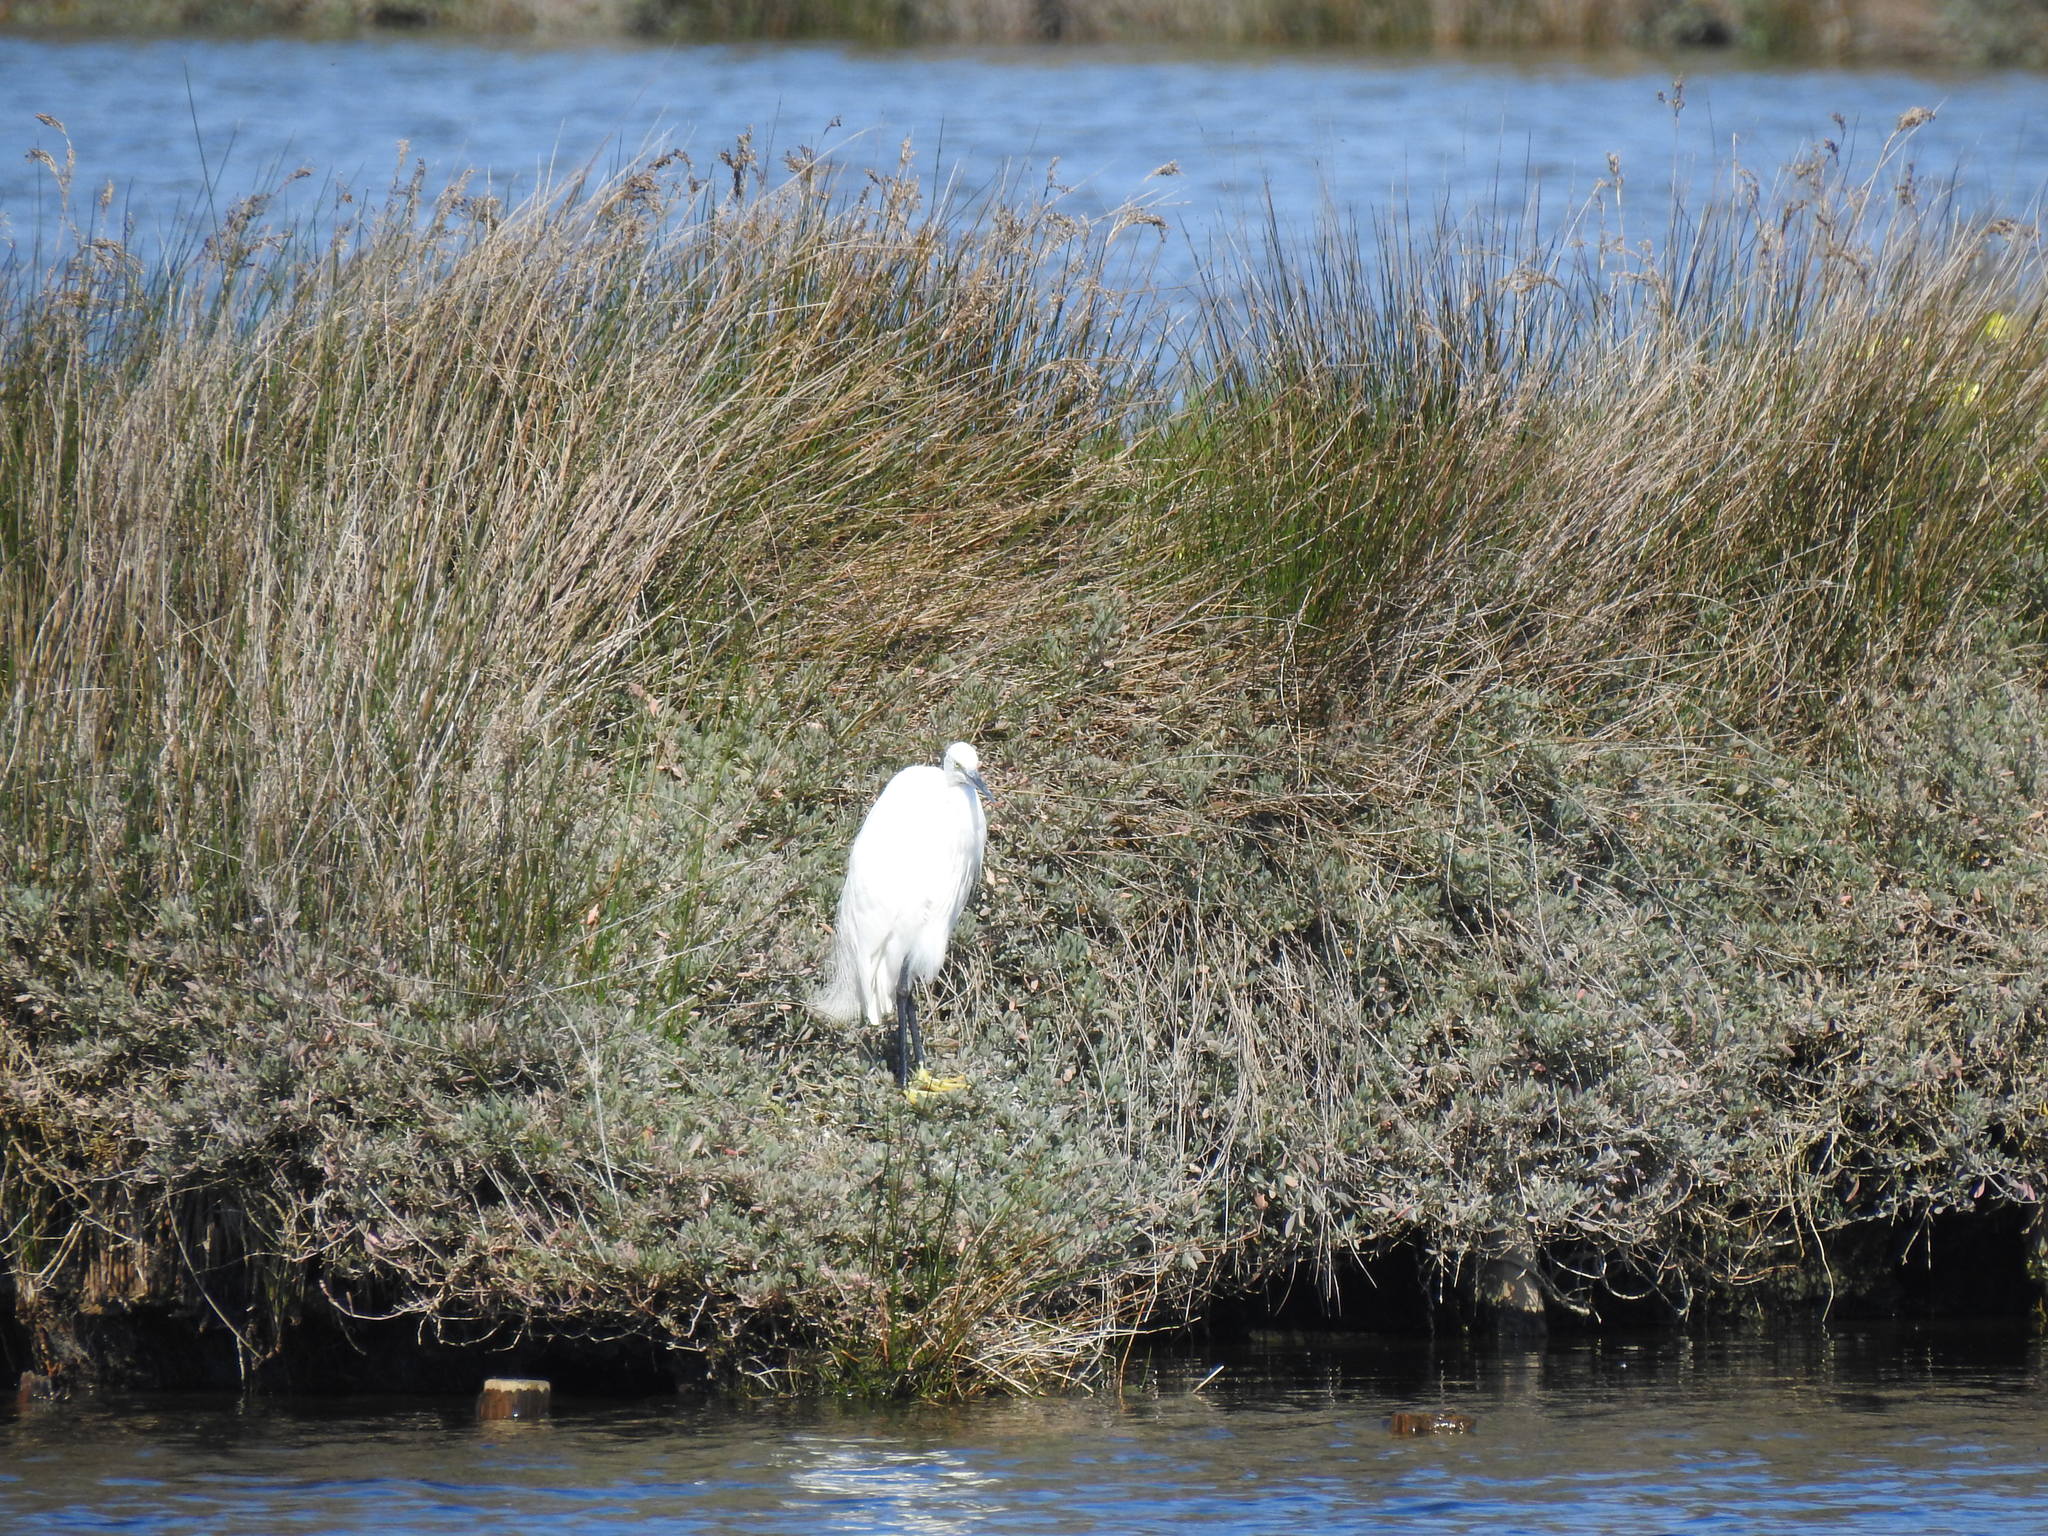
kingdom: Animalia
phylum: Chordata
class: Aves
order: Pelecaniformes
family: Ardeidae
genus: Egretta
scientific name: Egretta garzetta
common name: Little egret
